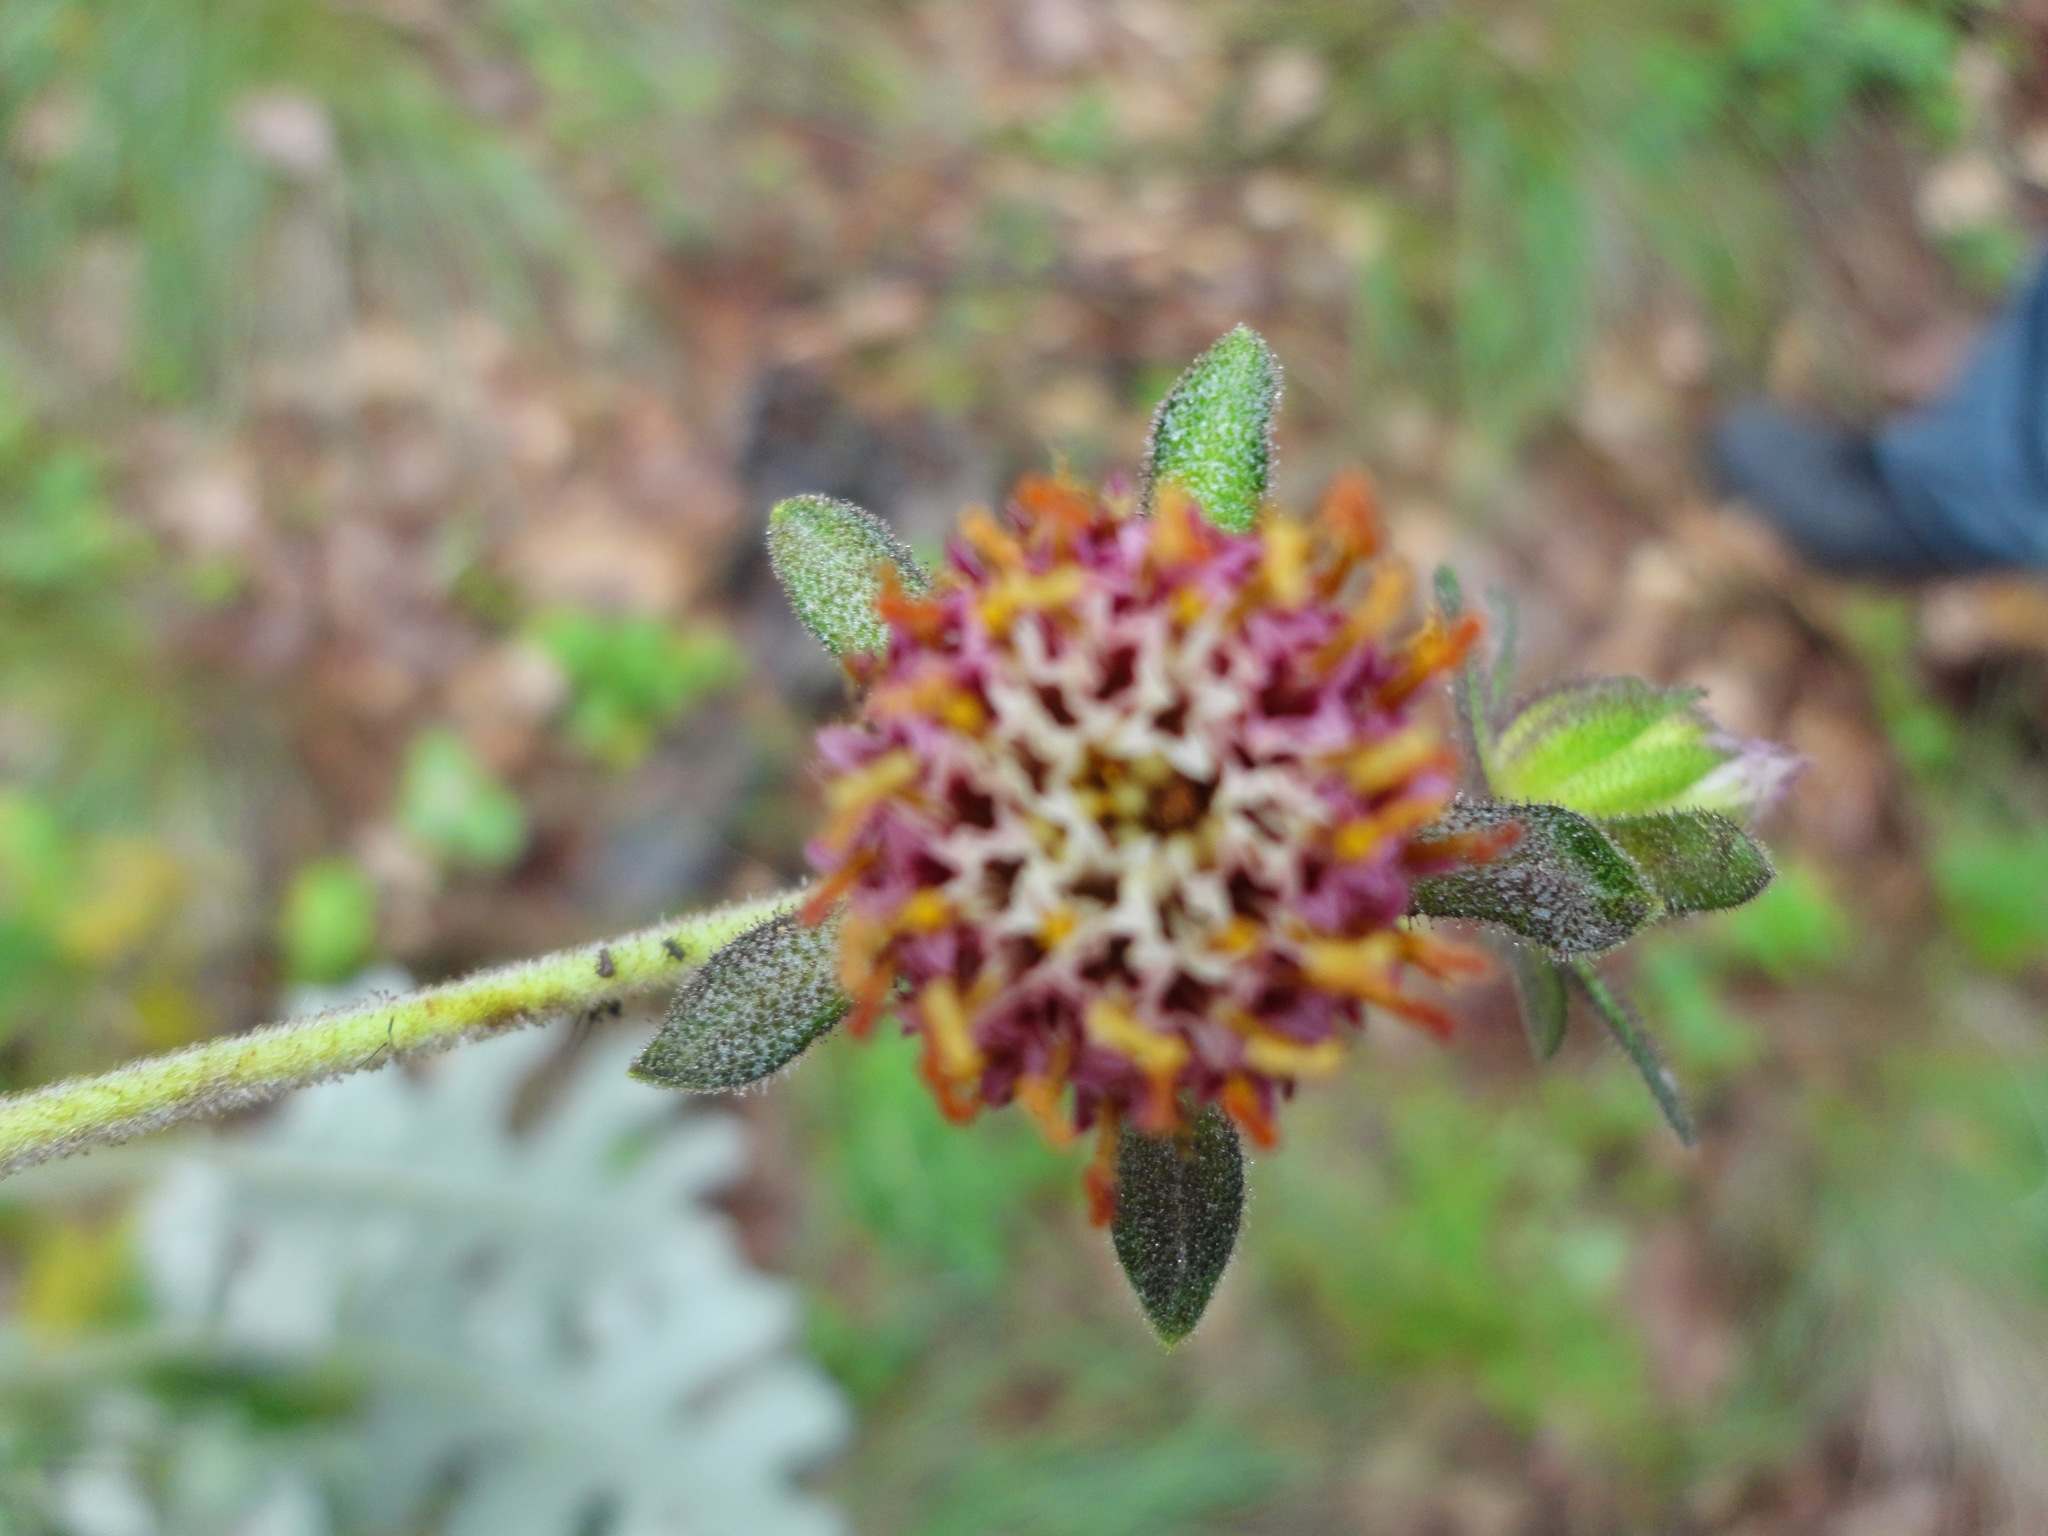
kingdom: Plantae
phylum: Tracheophyta
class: Magnoliopsida
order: Asterales
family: Asteraceae
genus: Axiniphyllum
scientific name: Axiniphyllum scabrum
